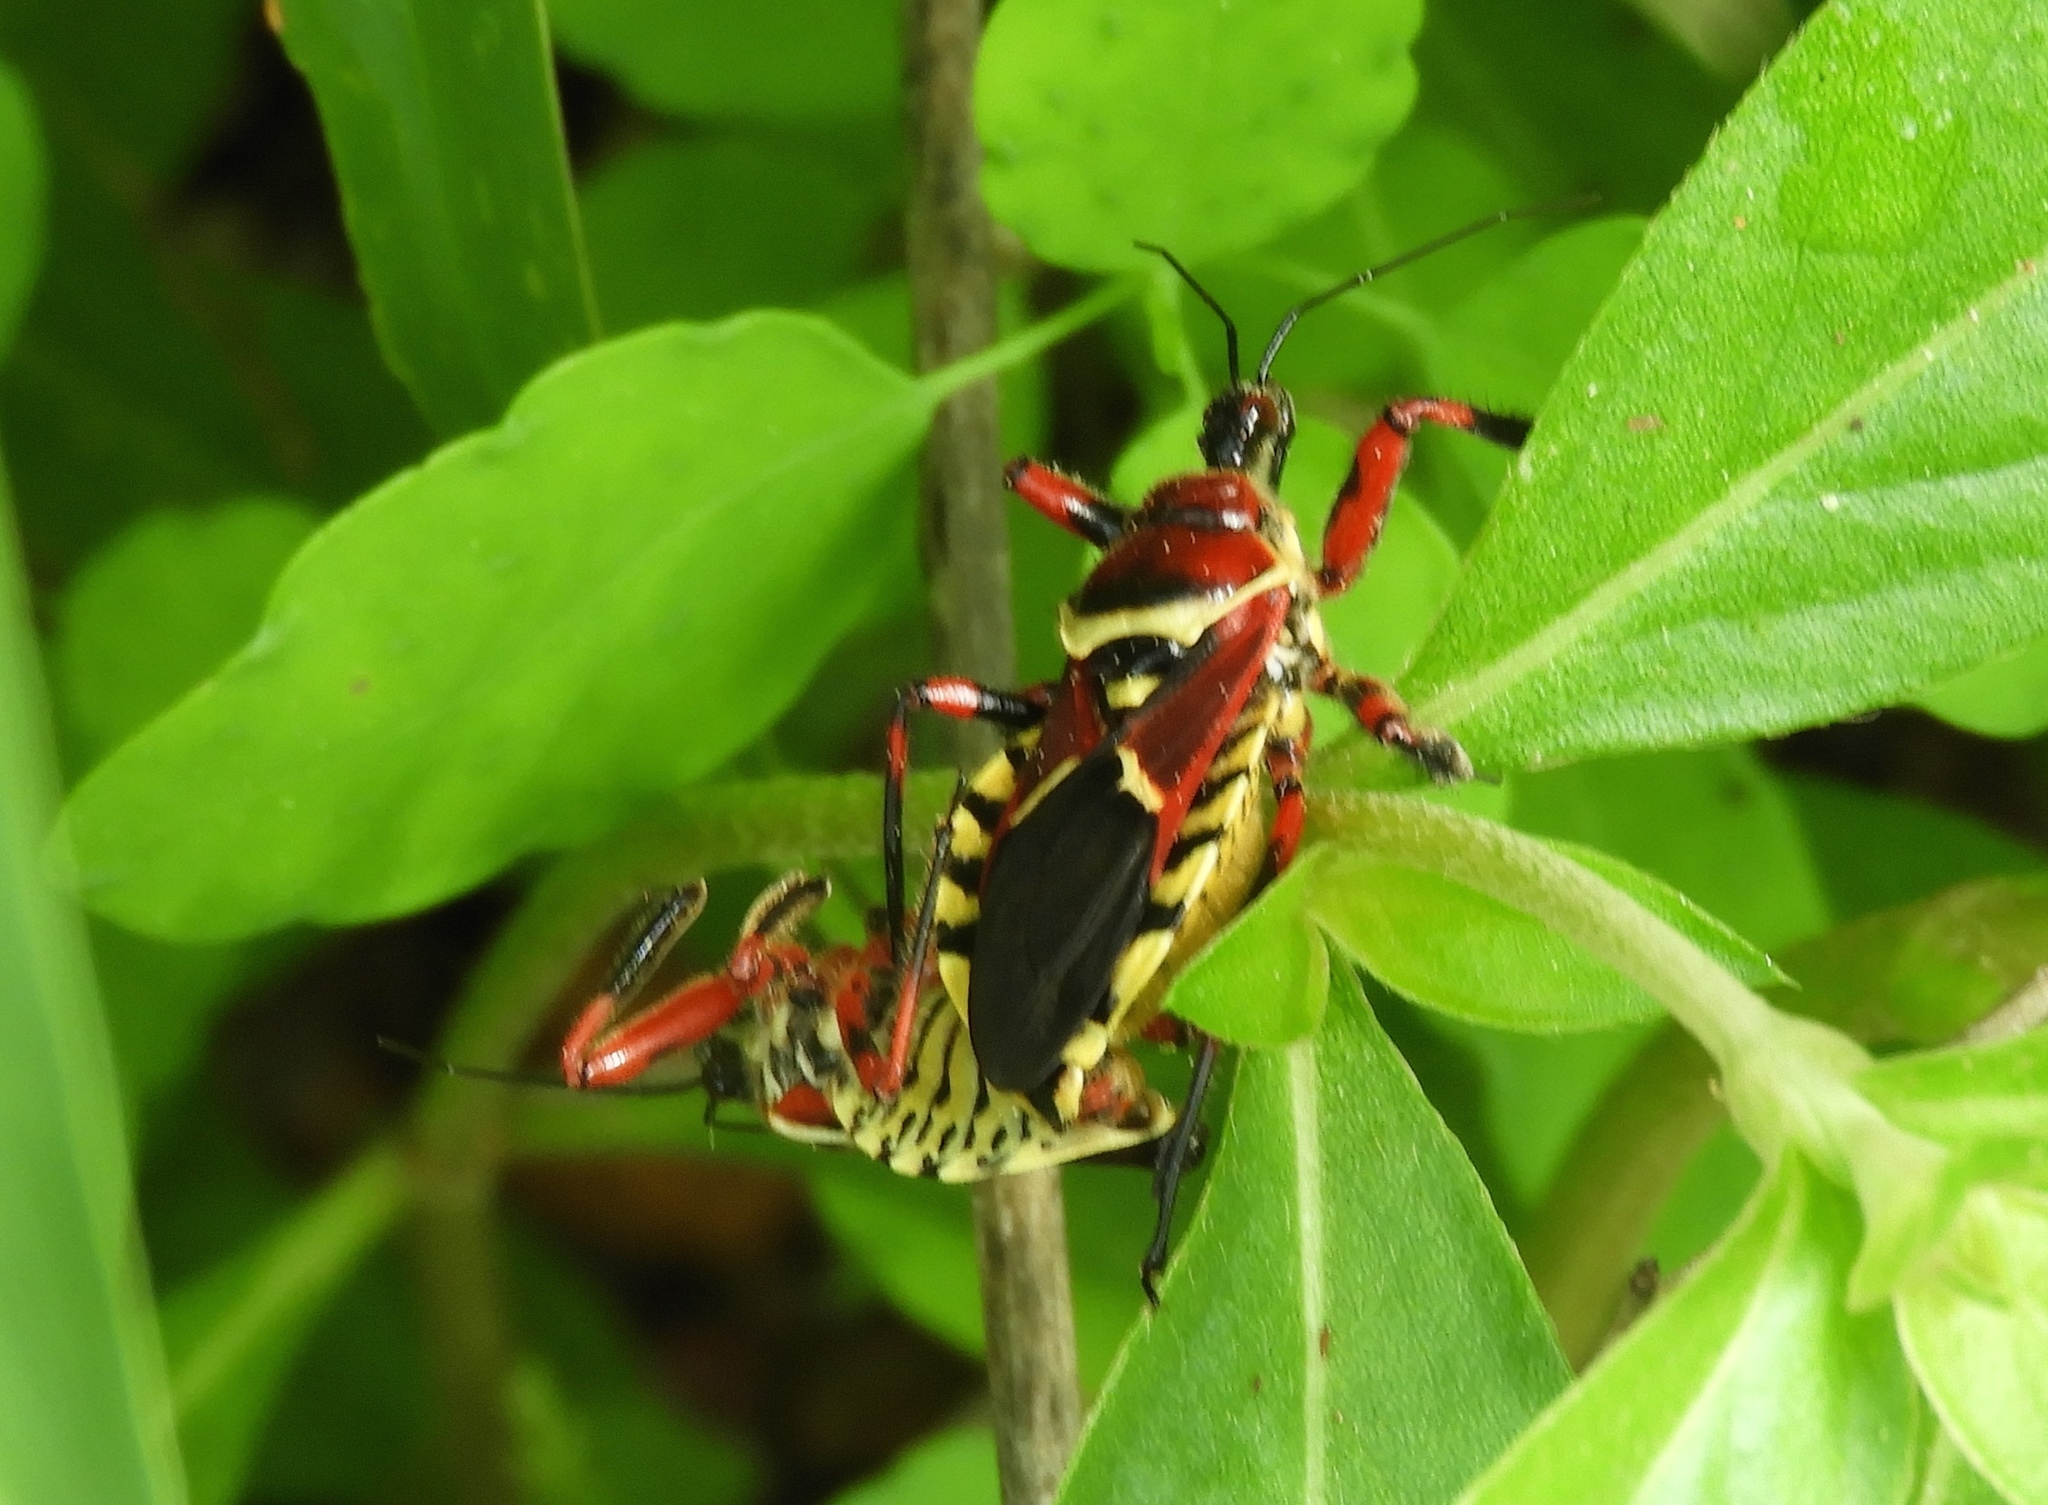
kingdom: Animalia
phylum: Arthropoda
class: Insecta
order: Hemiptera
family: Reduviidae
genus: Apiomerus
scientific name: Apiomerus flaviventris
